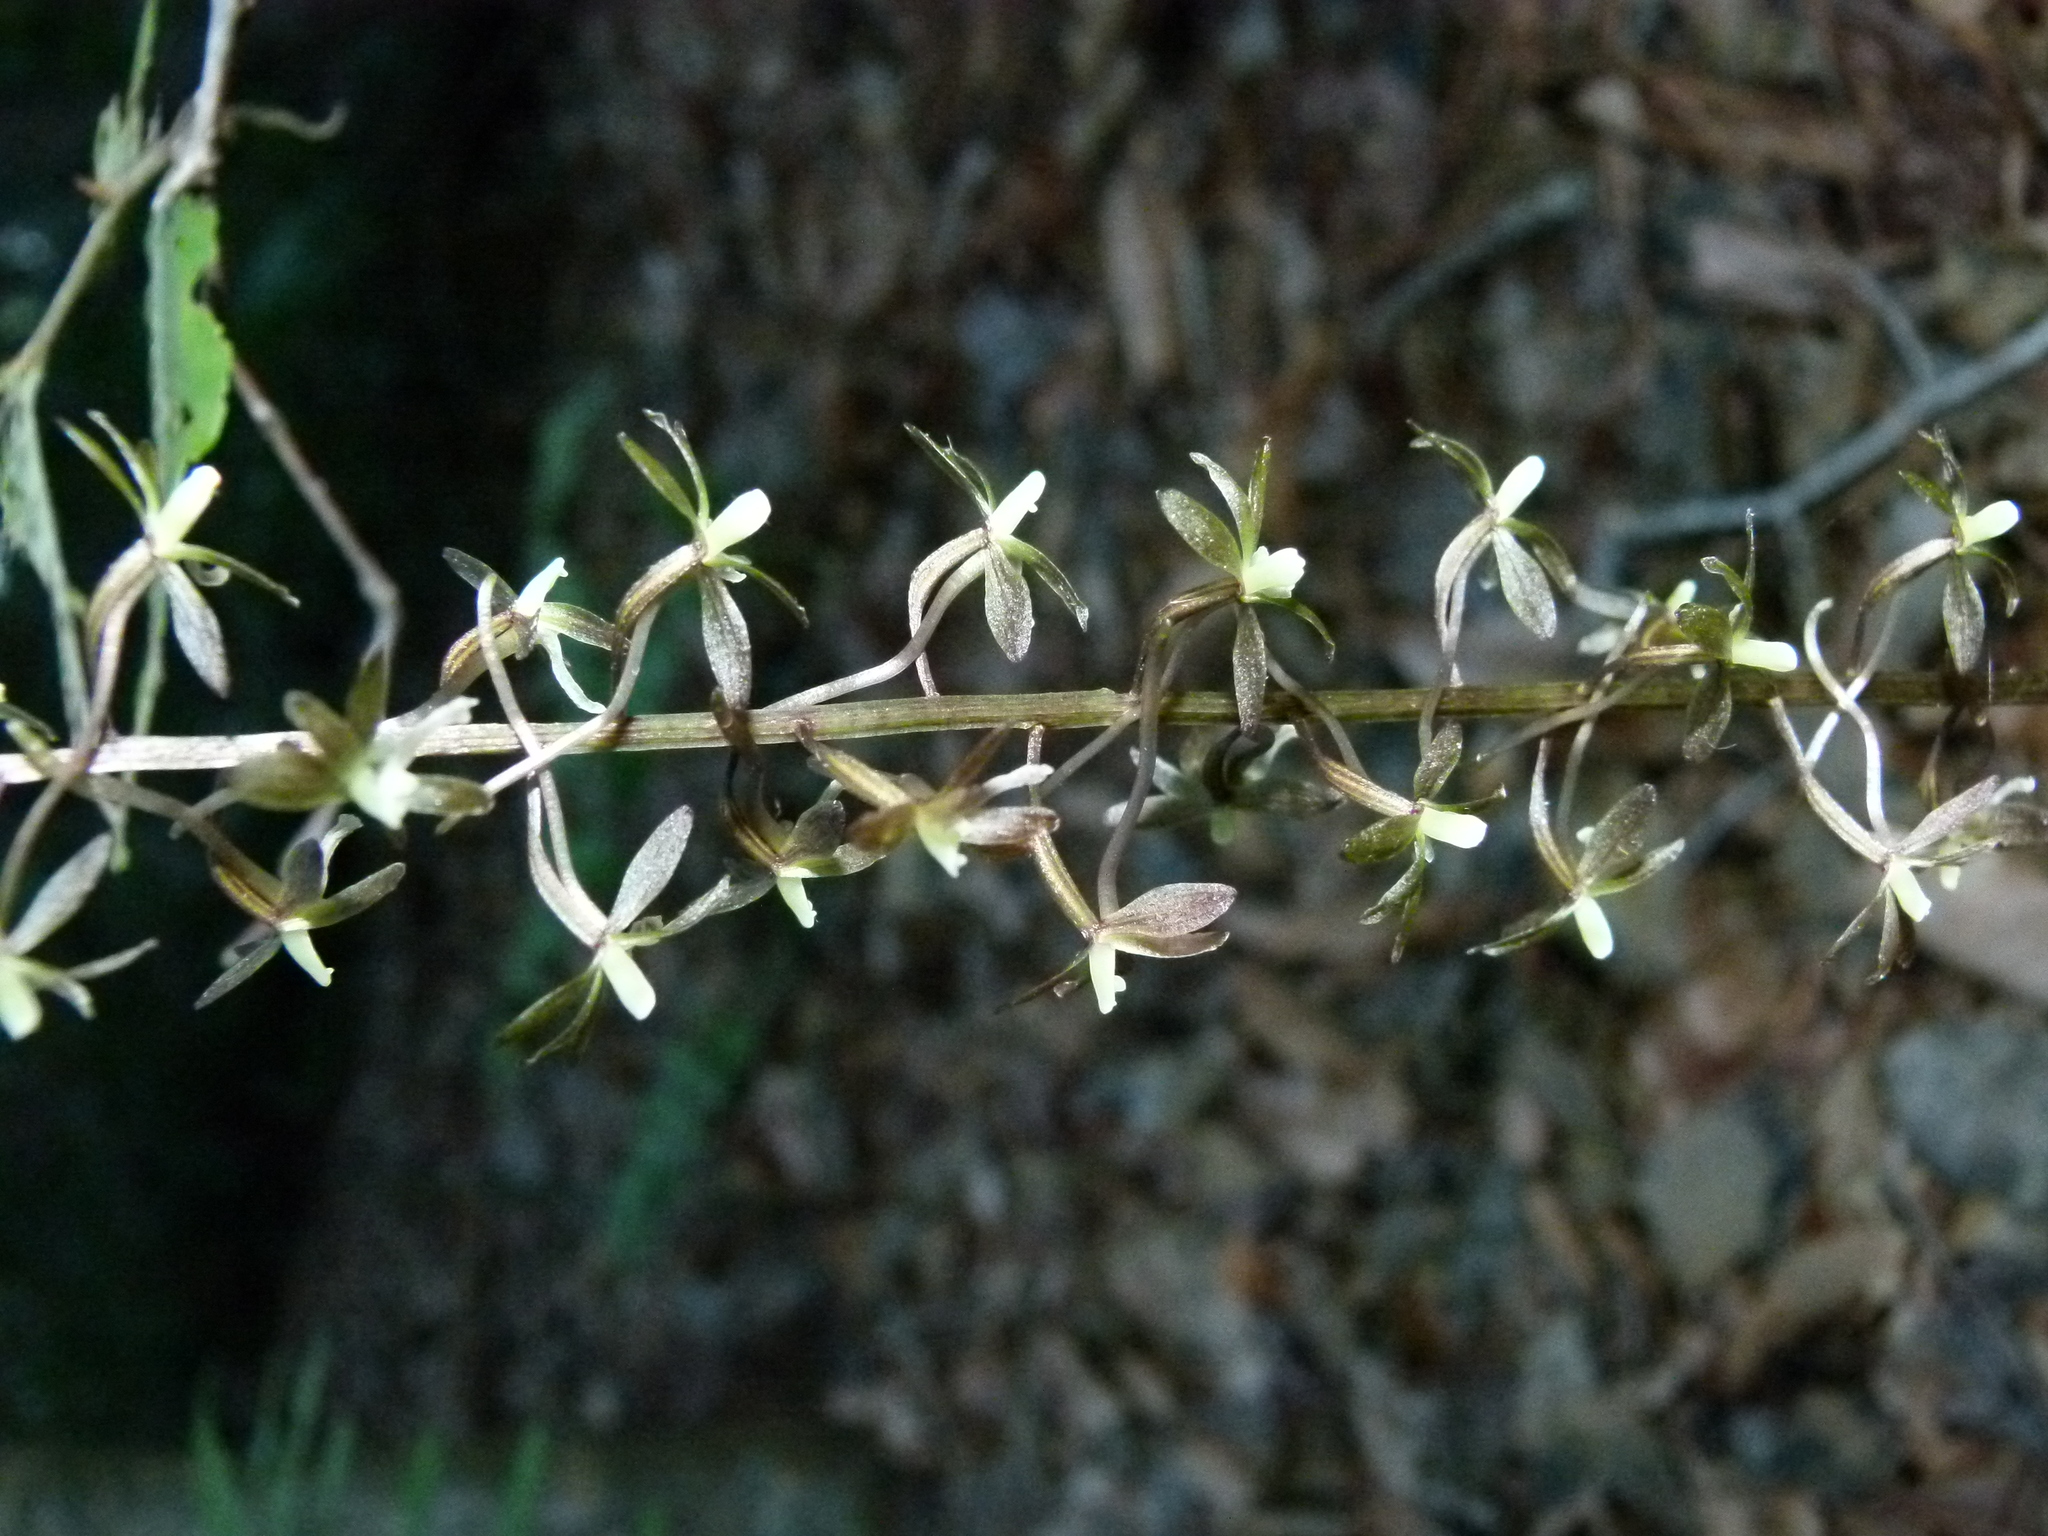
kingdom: Plantae
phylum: Tracheophyta
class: Liliopsida
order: Asparagales
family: Orchidaceae
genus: Tipularia
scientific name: Tipularia discolor
